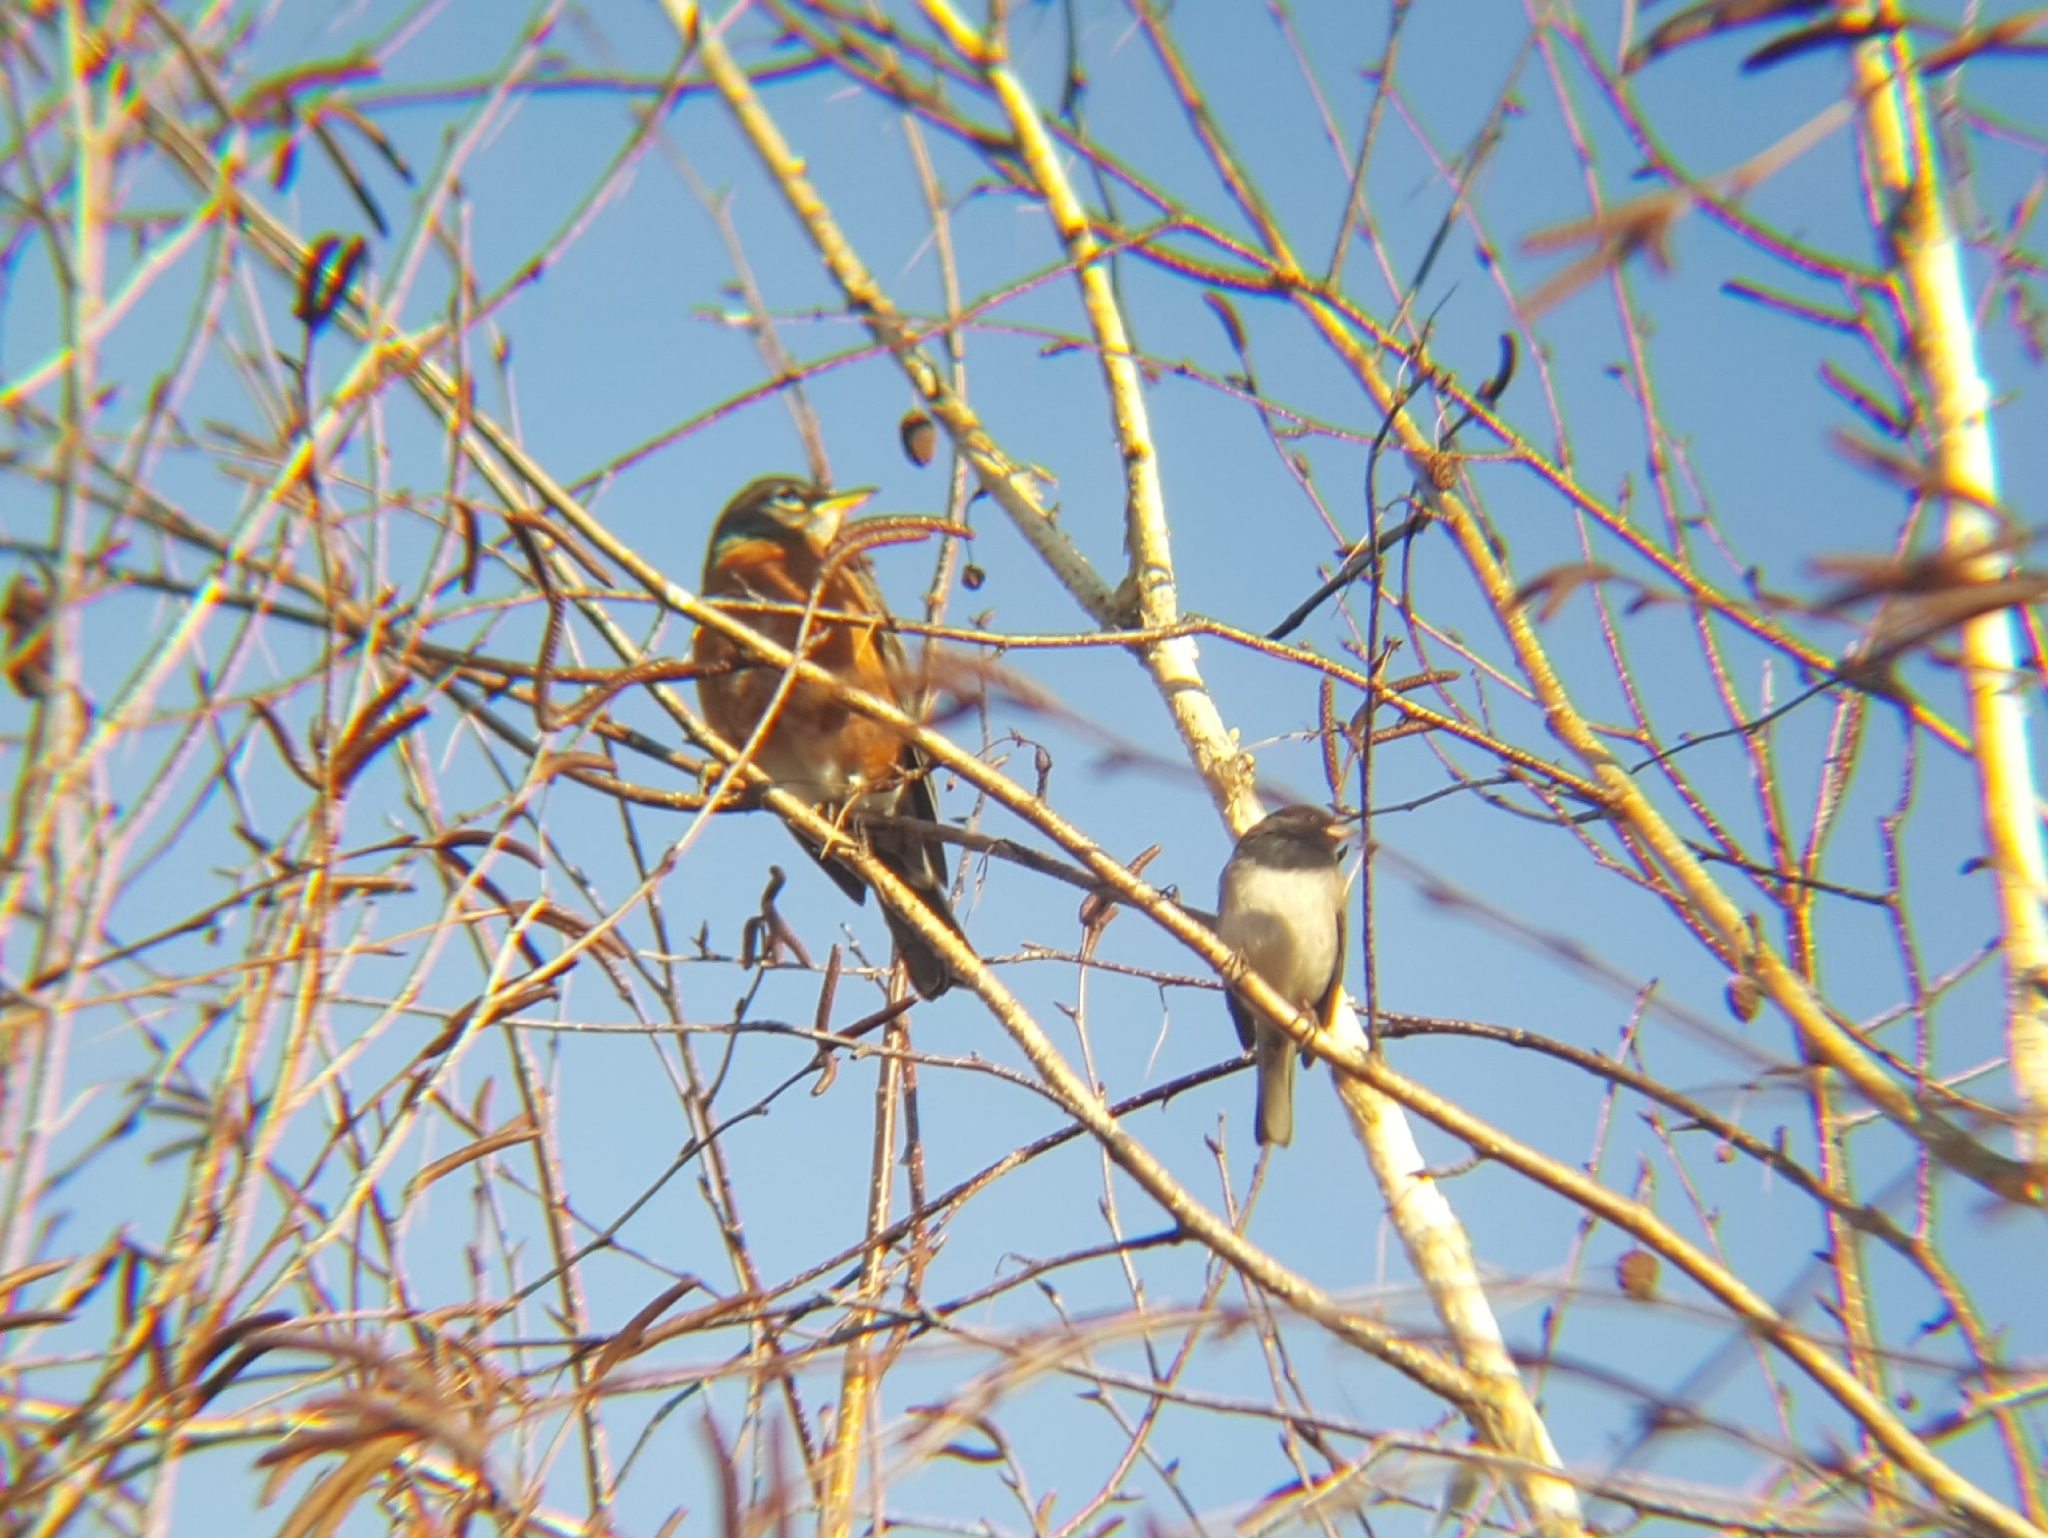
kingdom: Animalia
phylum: Chordata
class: Aves
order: Passeriformes
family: Passerellidae
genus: Junco
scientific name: Junco hyemalis
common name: Dark-eyed junco
